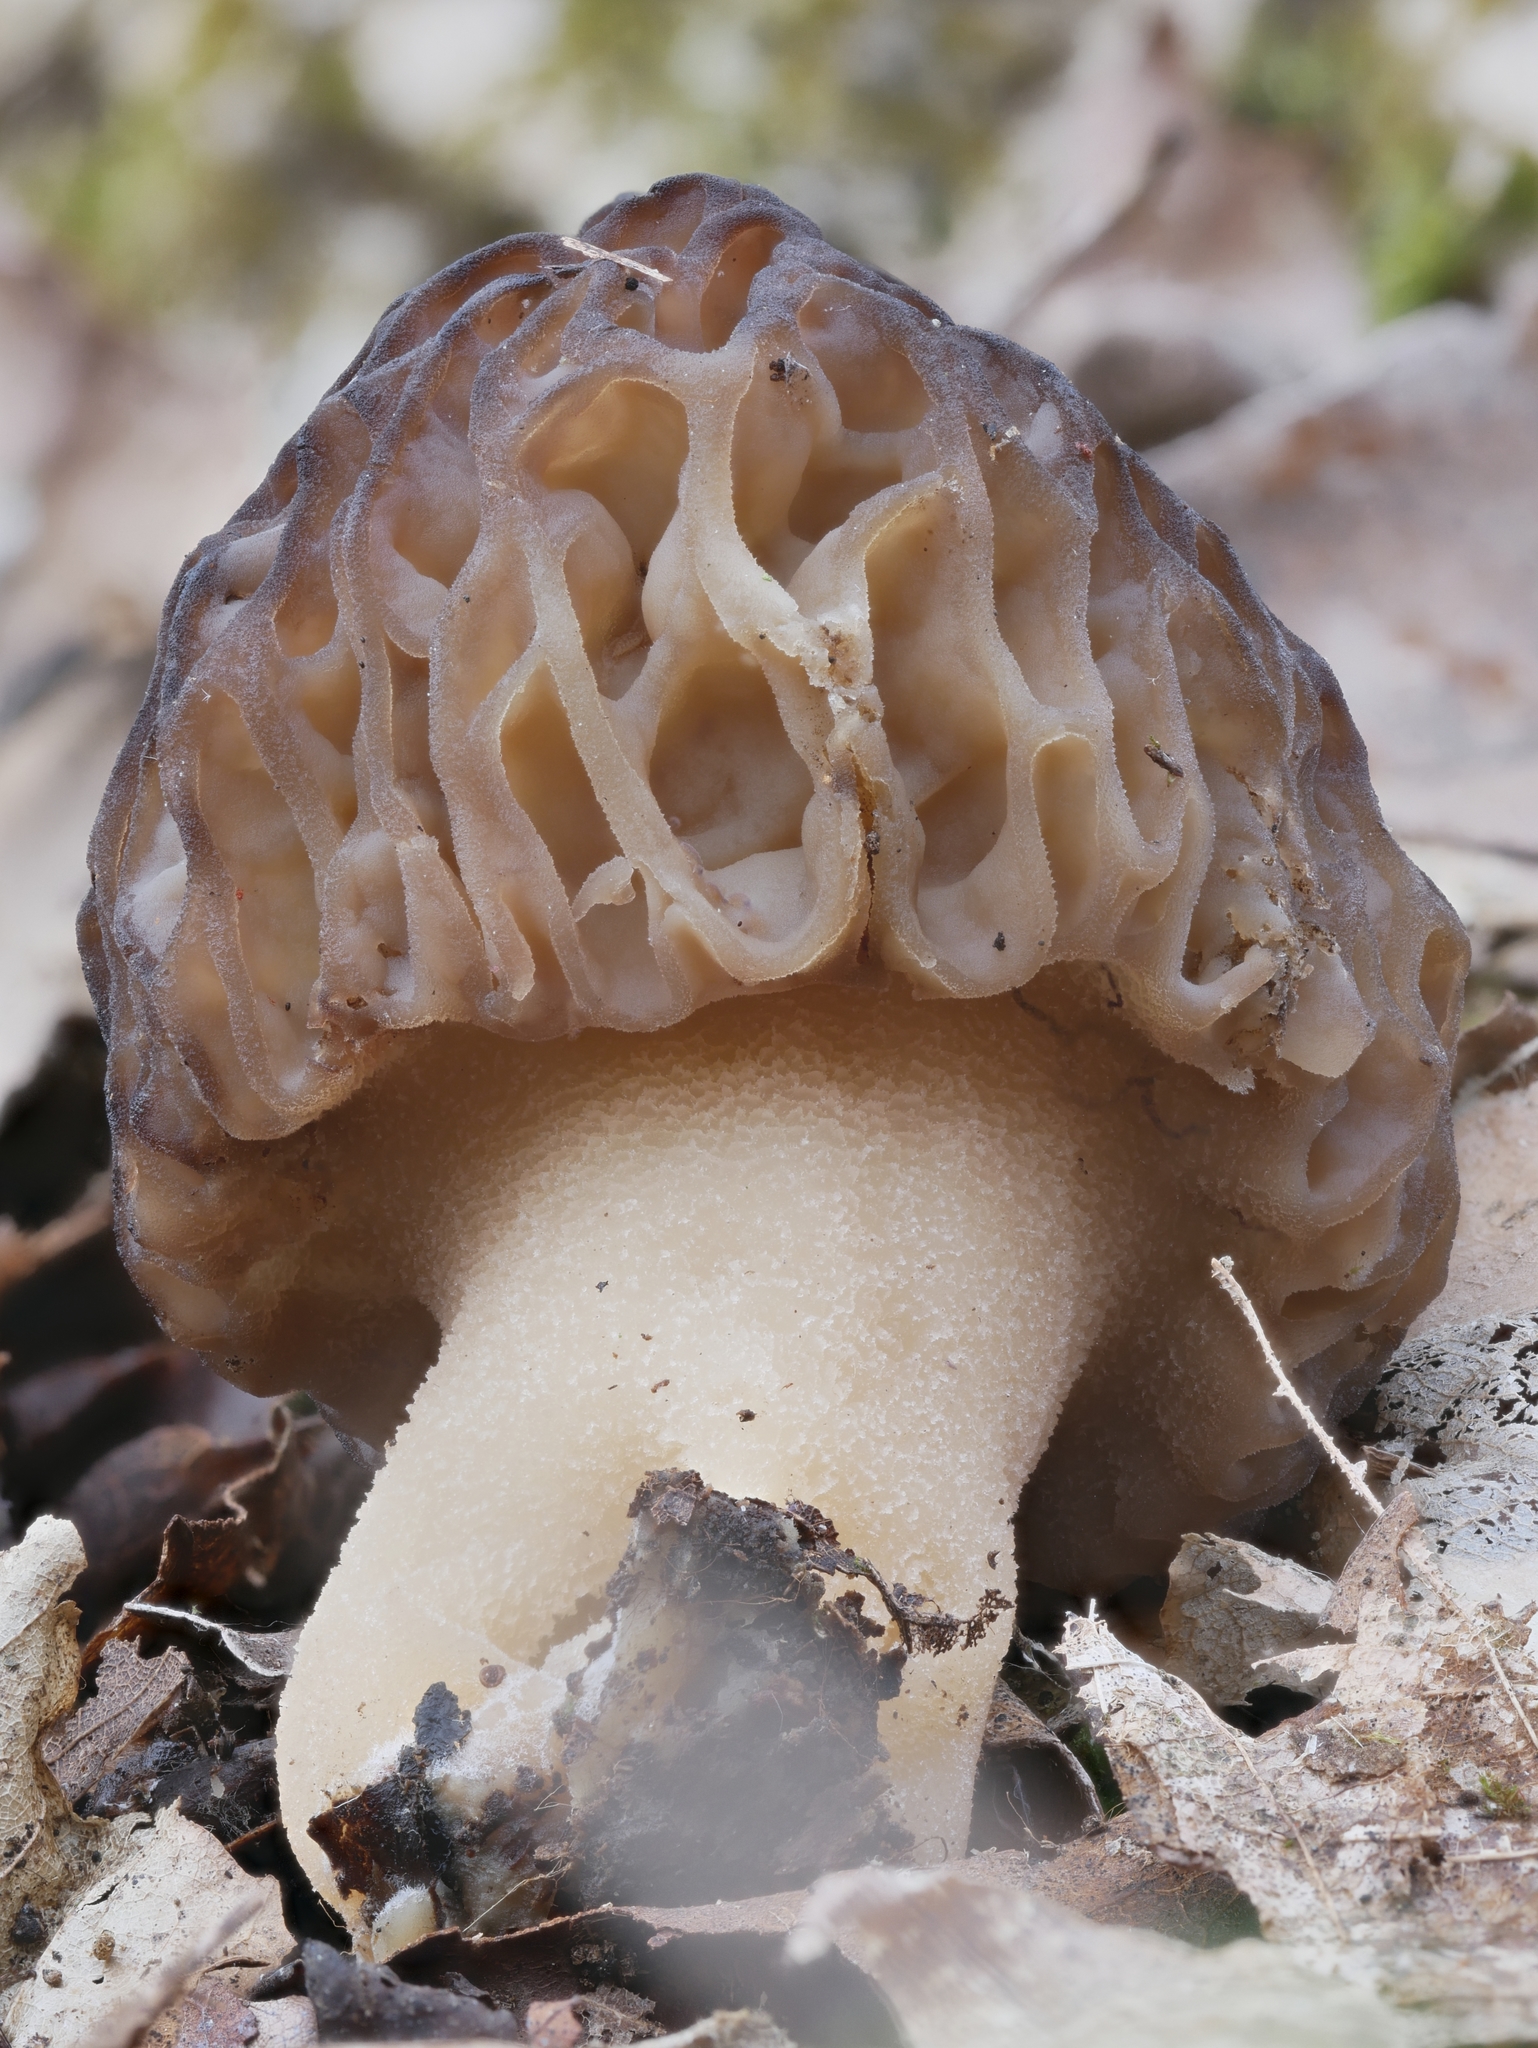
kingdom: Fungi
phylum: Ascomycota
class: Pezizomycetes
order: Pezizales
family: Morchellaceae
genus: Morchella
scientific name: Morchella angusticeps
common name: Black morel
